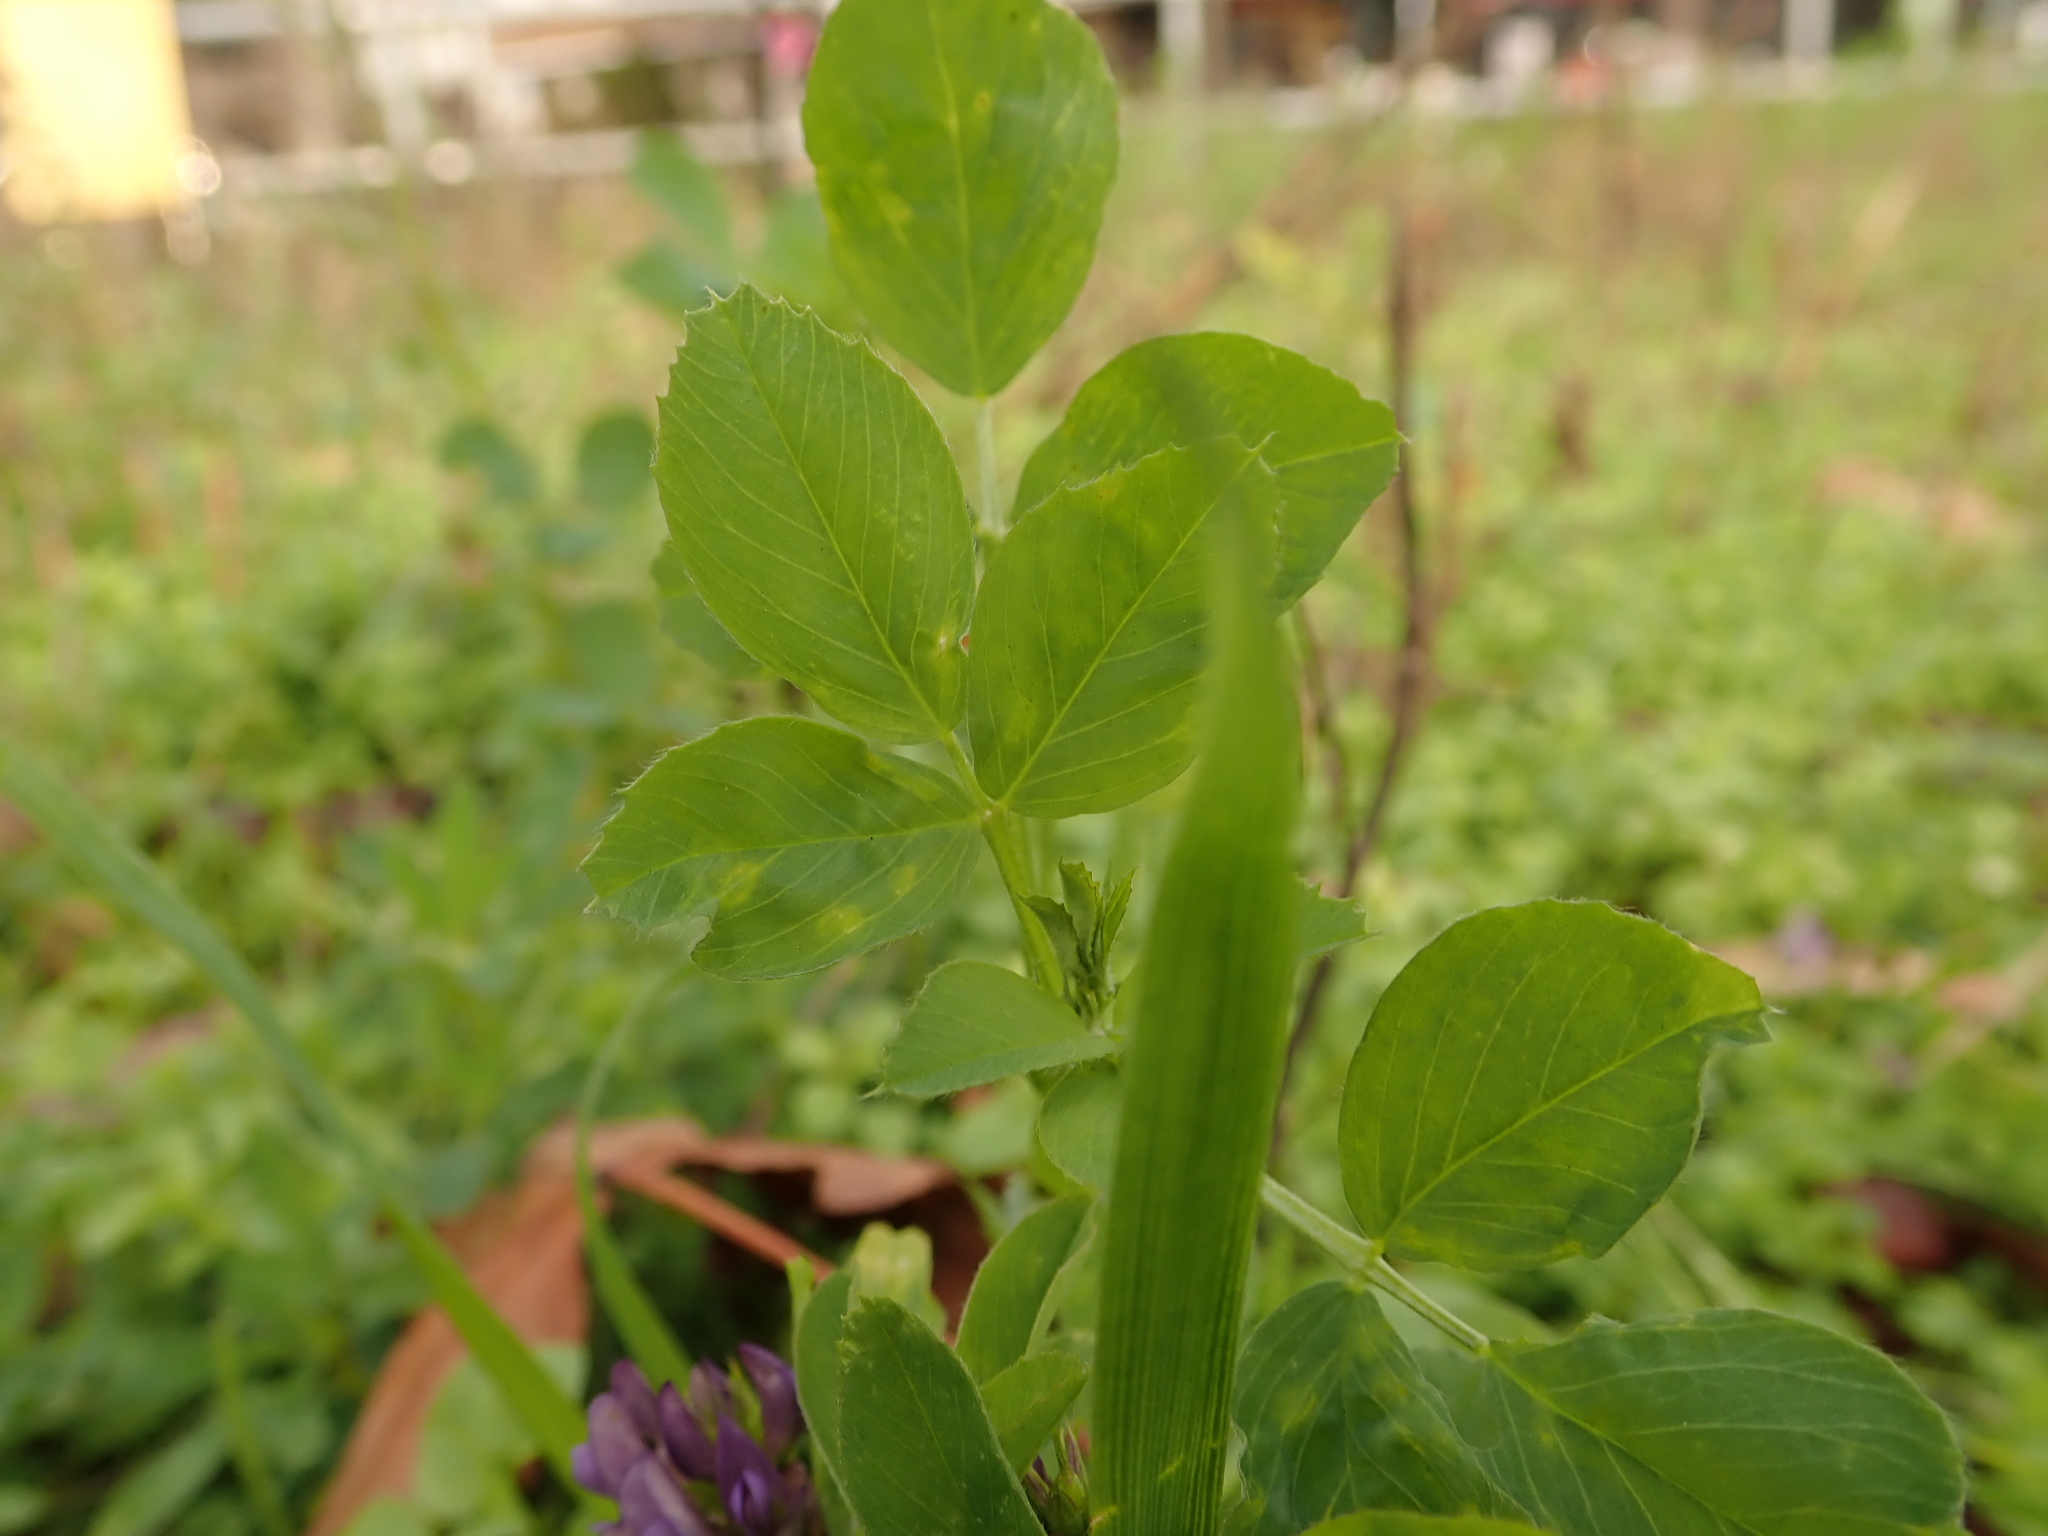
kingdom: Plantae
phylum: Tracheophyta
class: Magnoliopsida
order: Fabales
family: Fabaceae
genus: Medicago
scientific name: Medicago varia
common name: Sand lucerne
